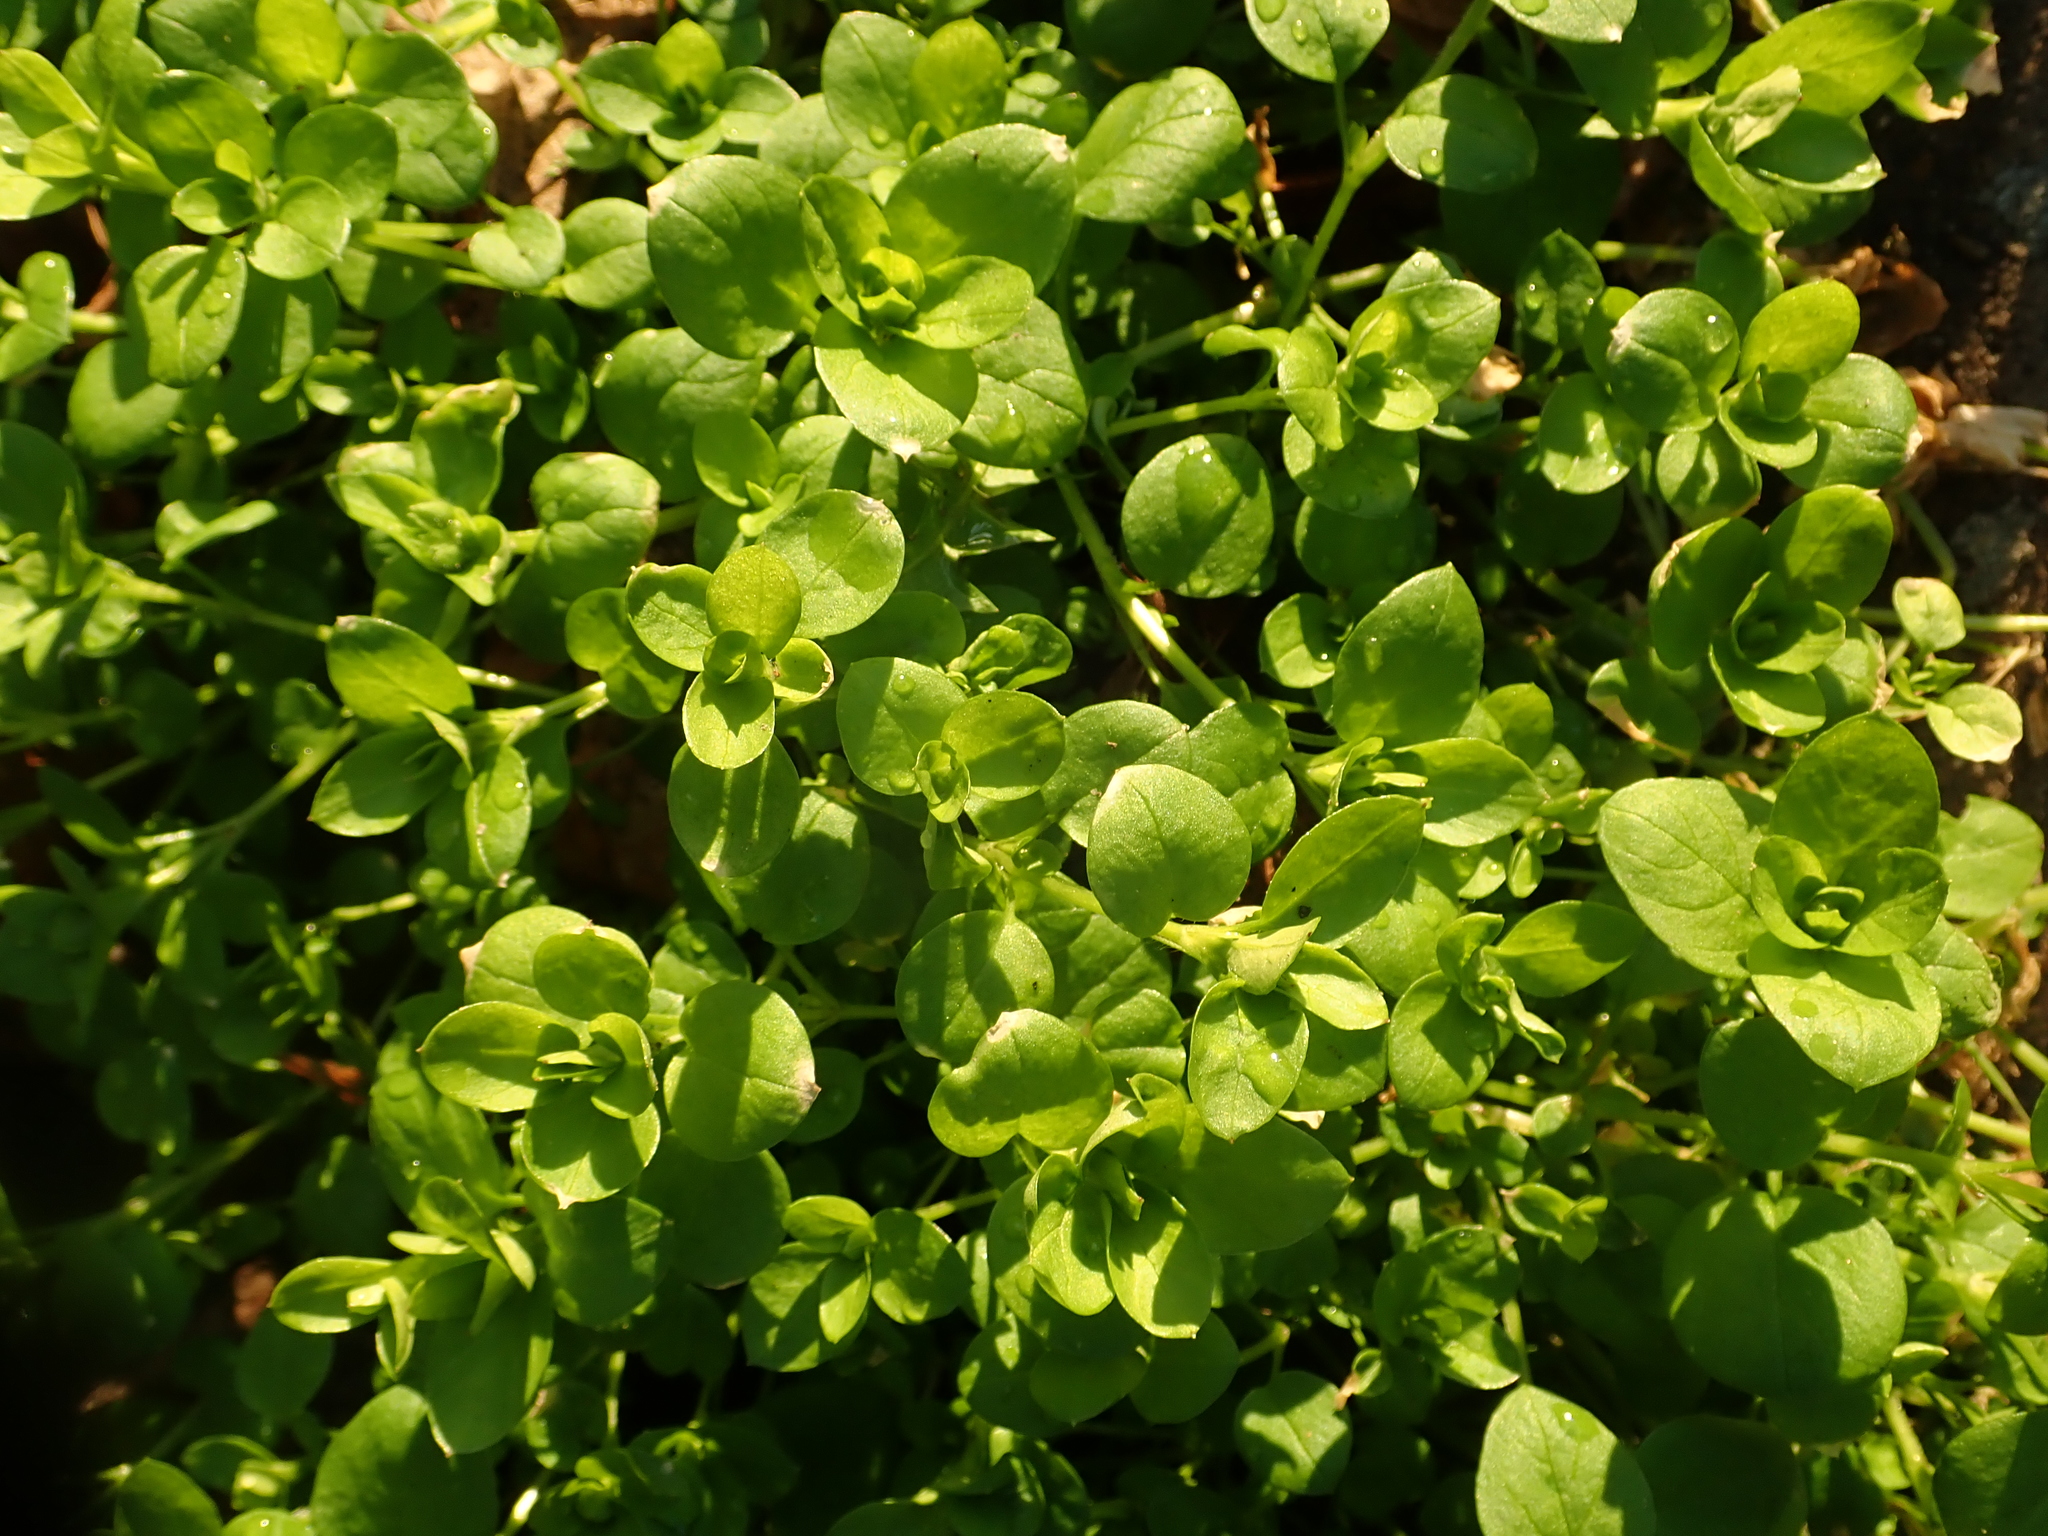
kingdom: Plantae
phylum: Tracheophyta
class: Magnoliopsida
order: Caryophyllales
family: Caryophyllaceae
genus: Stellaria
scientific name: Stellaria media
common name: Common chickweed
